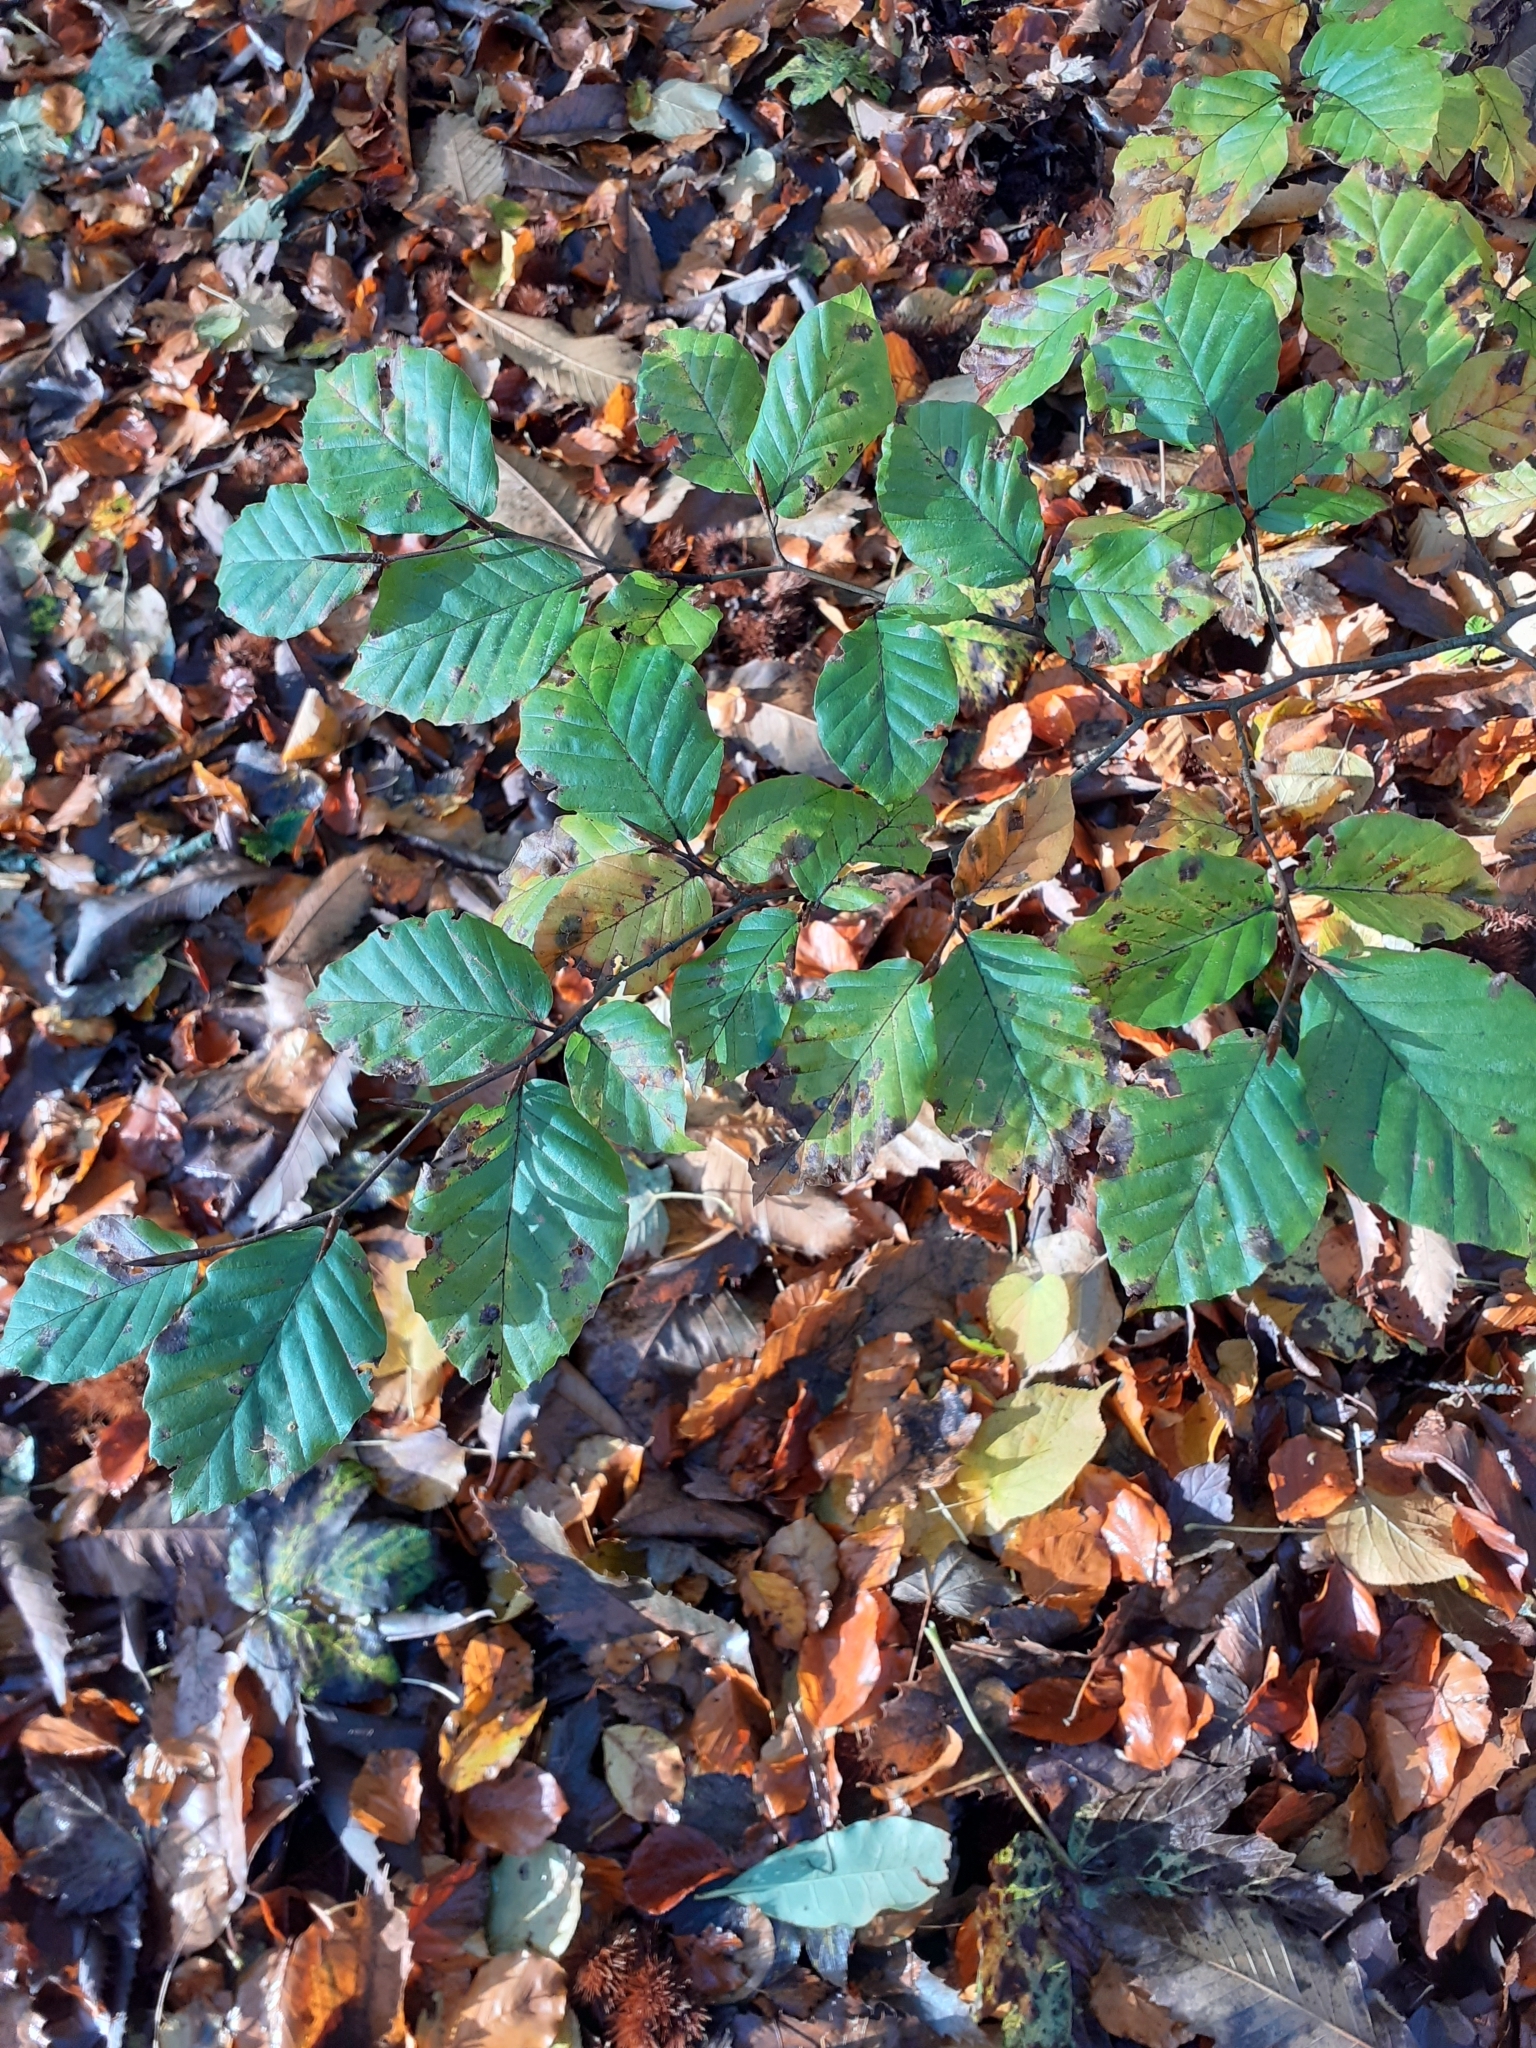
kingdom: Plantae
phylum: Tracheophyta
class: Magnoliopsida
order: Fagales
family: Fagaceae
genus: Fagus
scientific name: Fagus sylvatica
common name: Beech
